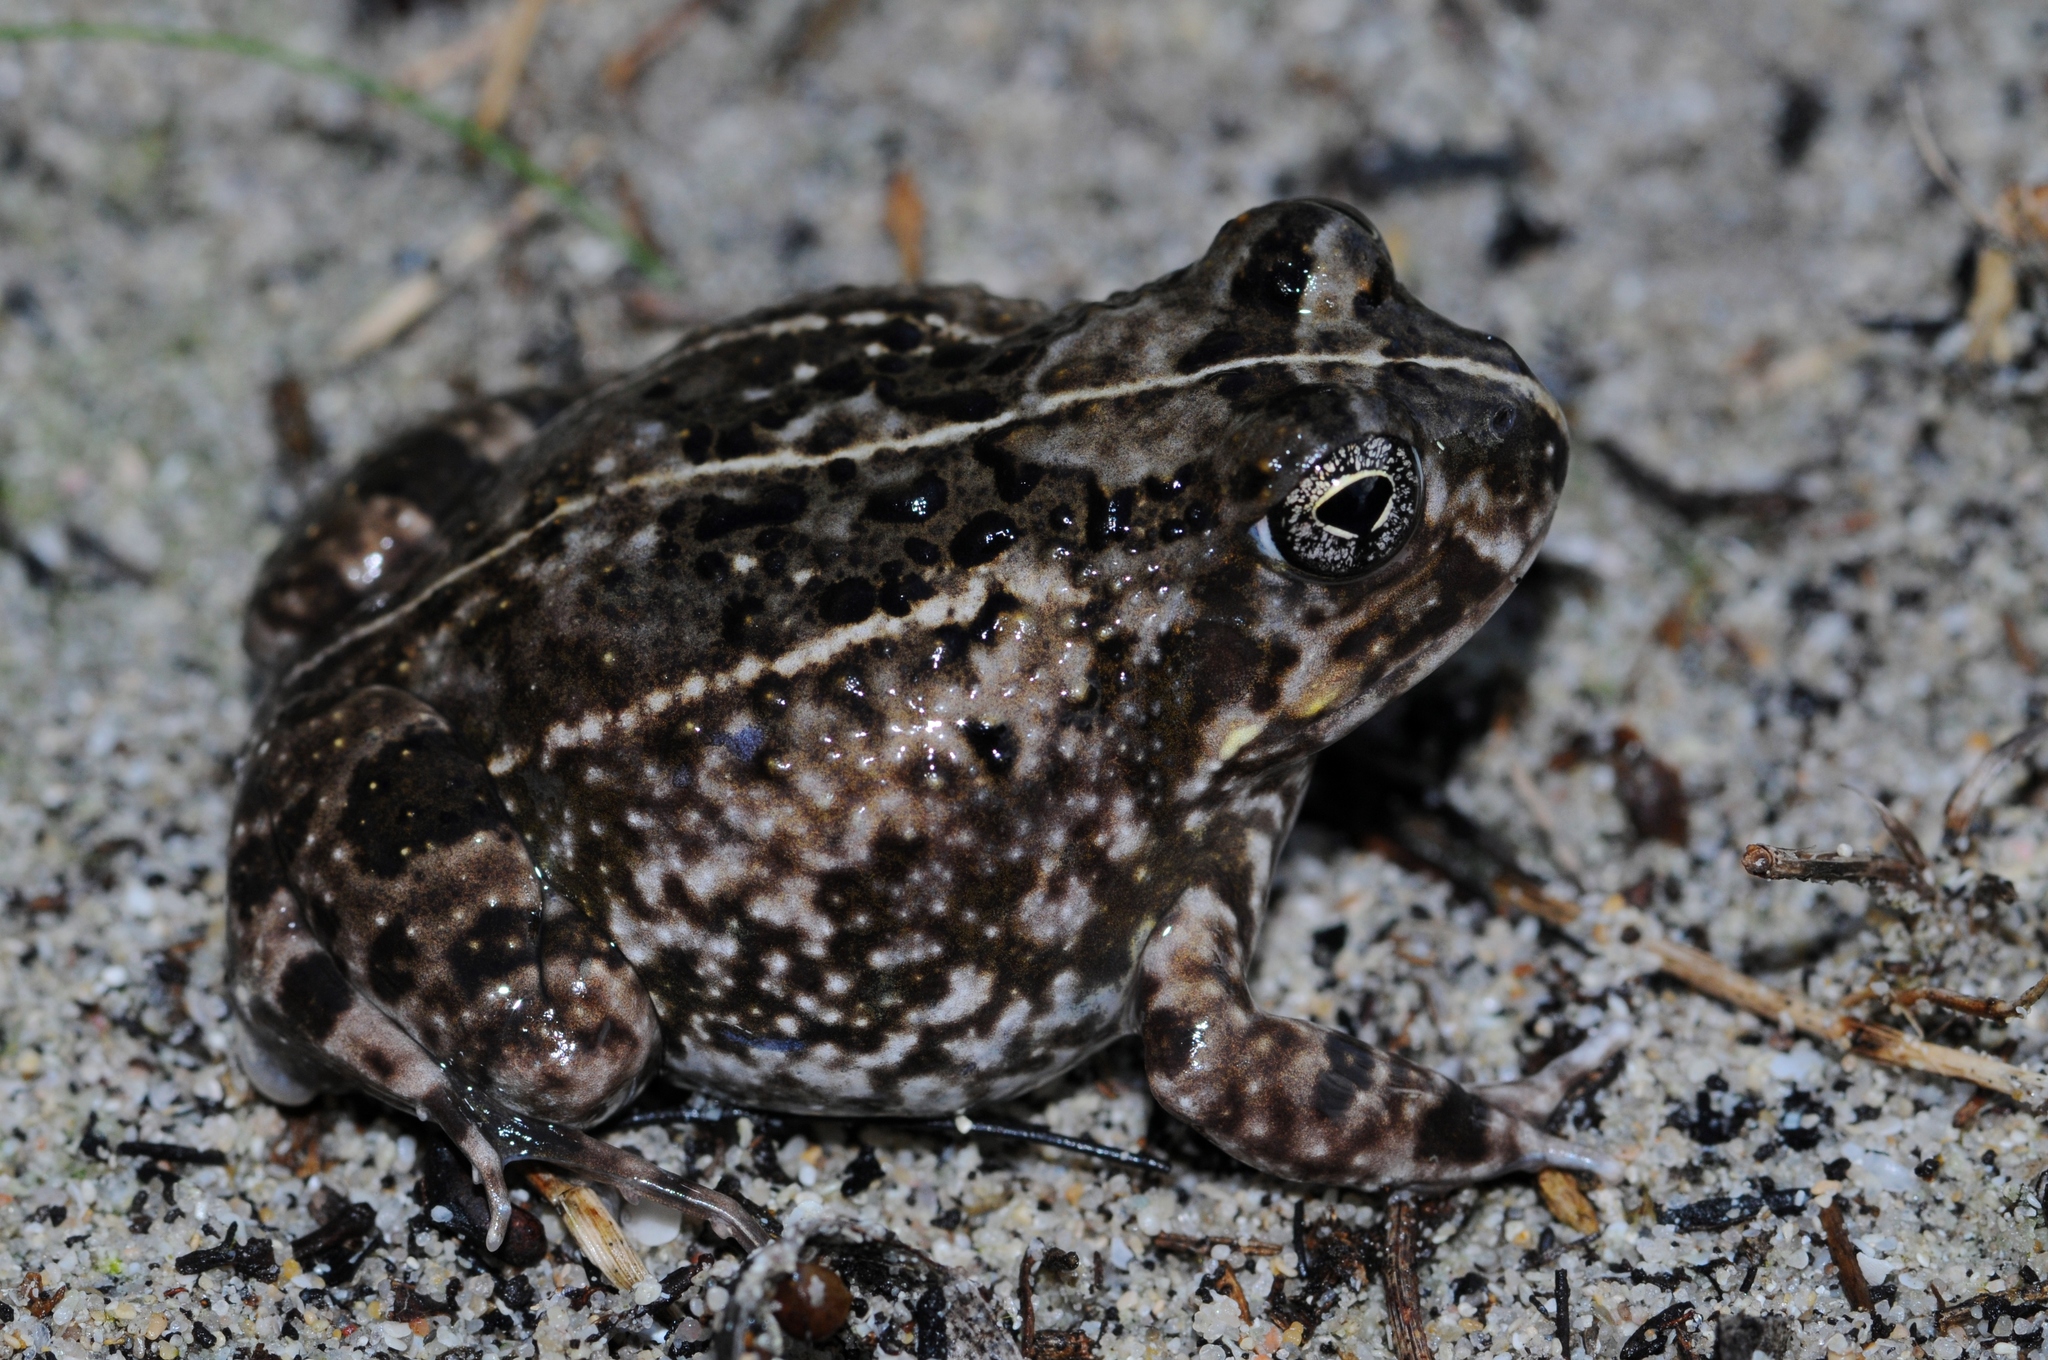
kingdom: Animalia
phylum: Chordata
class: Amphibia
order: Anura
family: Pyxicephalidae
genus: Tomopterna
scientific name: Tomopterna delalandii
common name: Delalande's burrowing bullfrog
